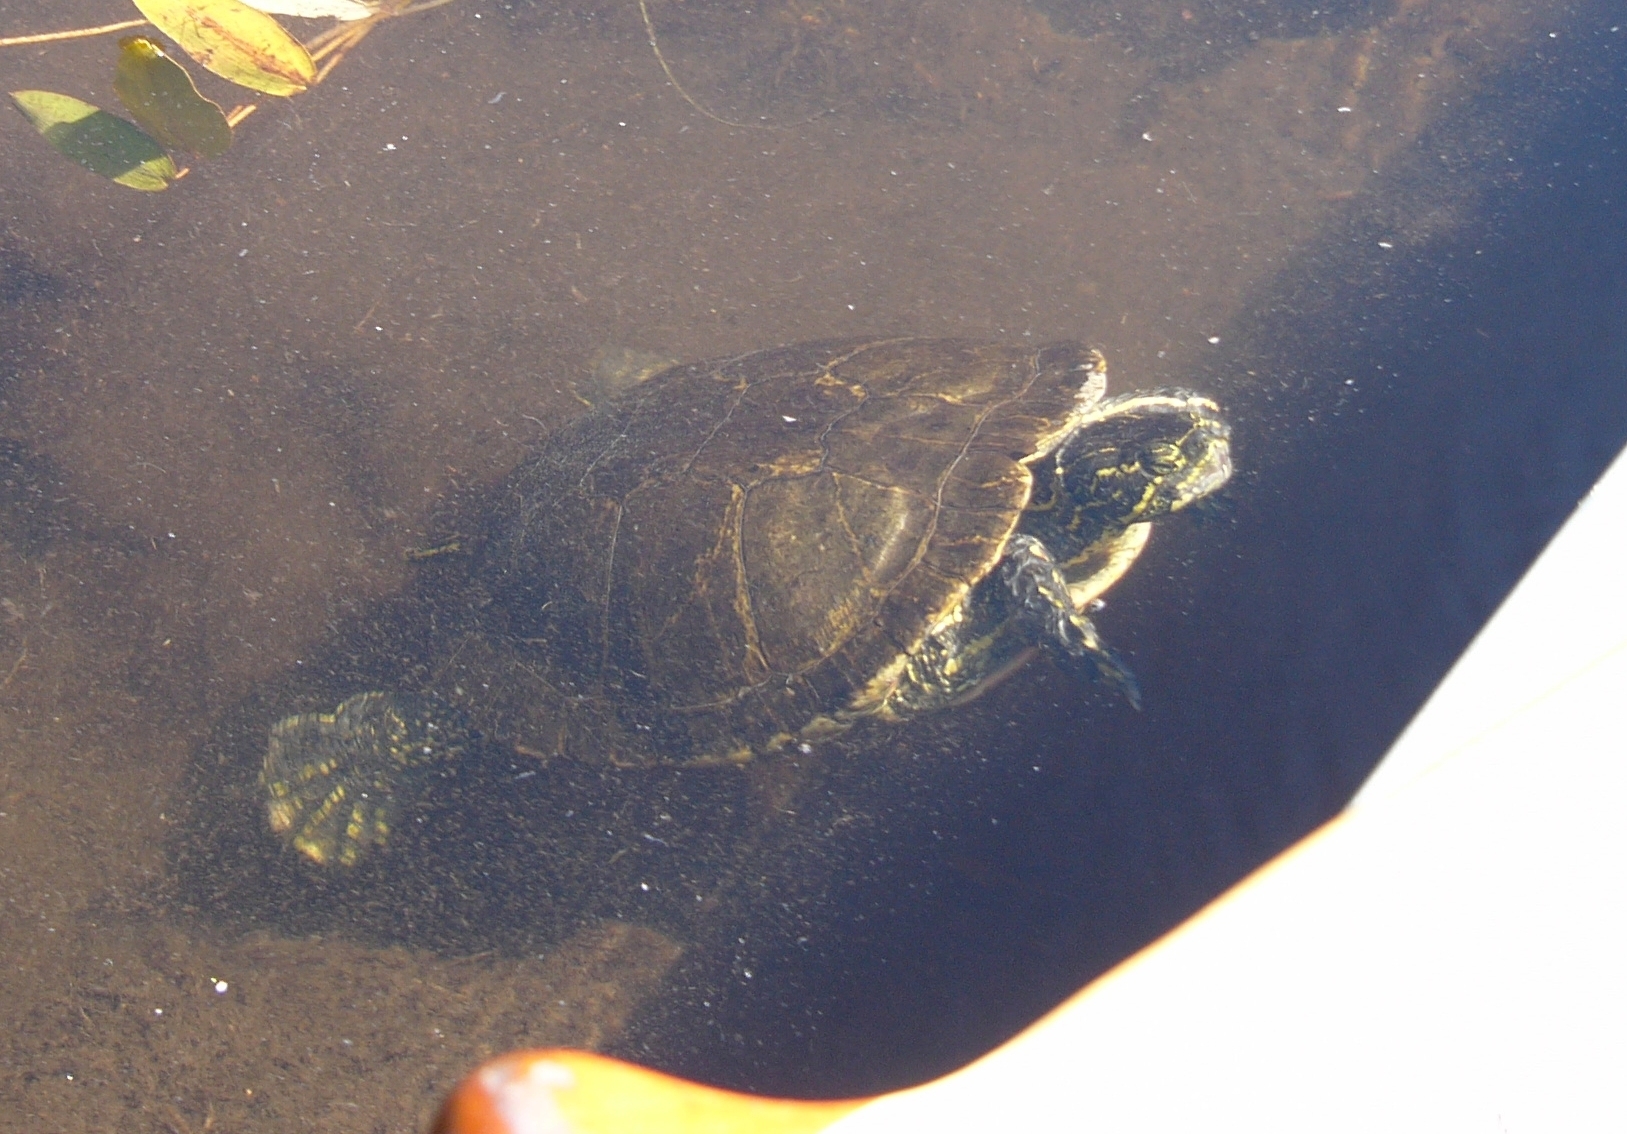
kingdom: Animalia
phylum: Chordata
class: Testudines
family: Emydidae
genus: Chrysemys
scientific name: Chrysemys picta
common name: Painted turtle
